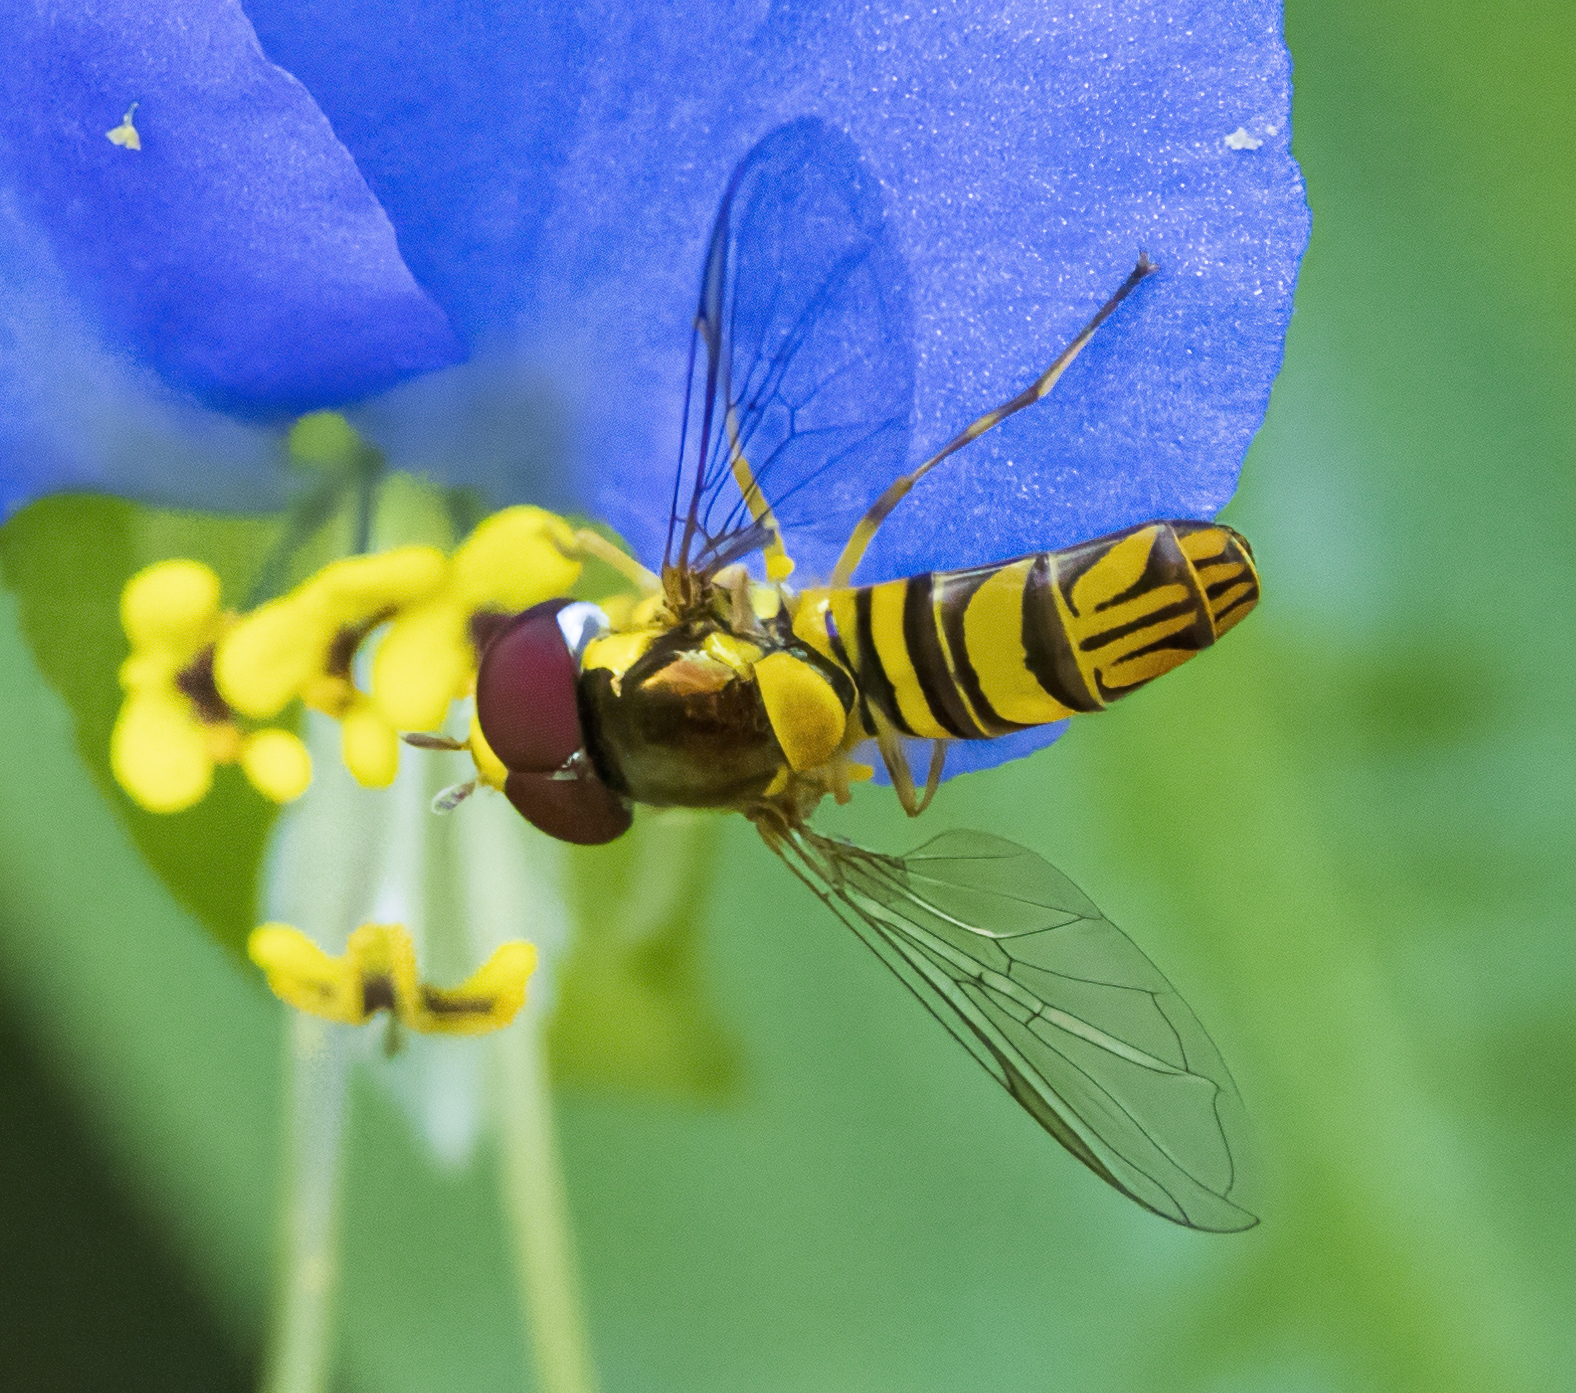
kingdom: Animalia
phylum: Arthropoda
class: Insecta
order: Diptera
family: Syrphidae
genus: Allograpta
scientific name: Allograpta obliqua
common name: Common oblique syrphid
